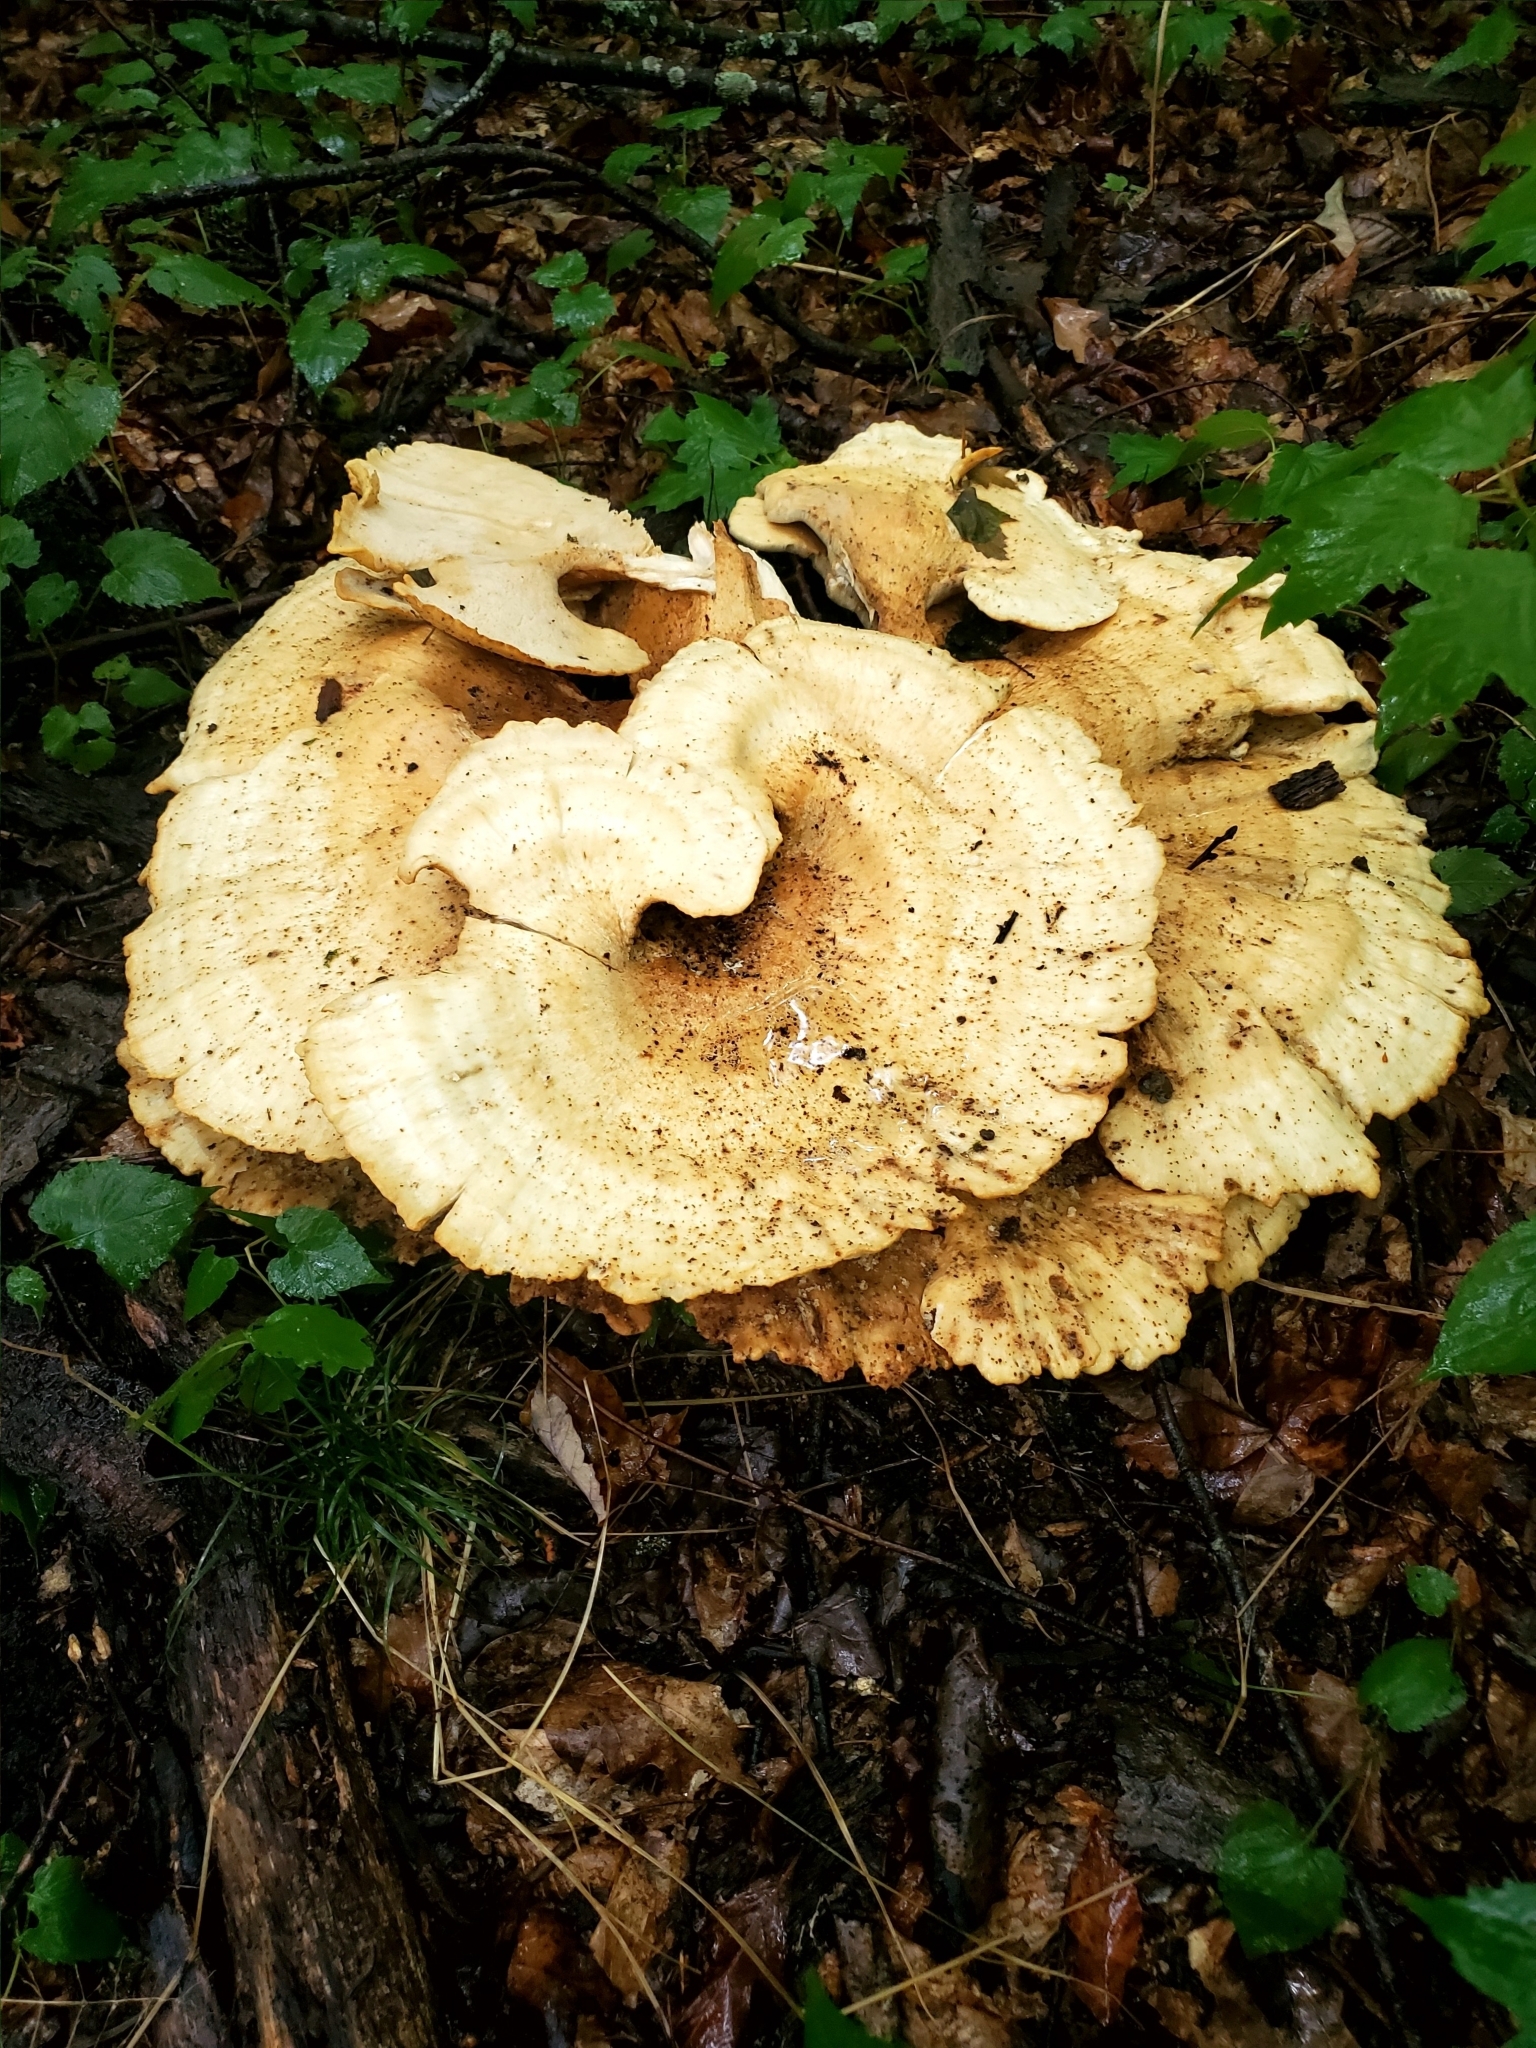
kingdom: Fungi
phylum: Basidiomycota
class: Agaricomycetes
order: Russulales
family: Bondarzewiaceae
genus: Bondarzewia
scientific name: Bondarzewia berkeleyi
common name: Berkeley's polypore
